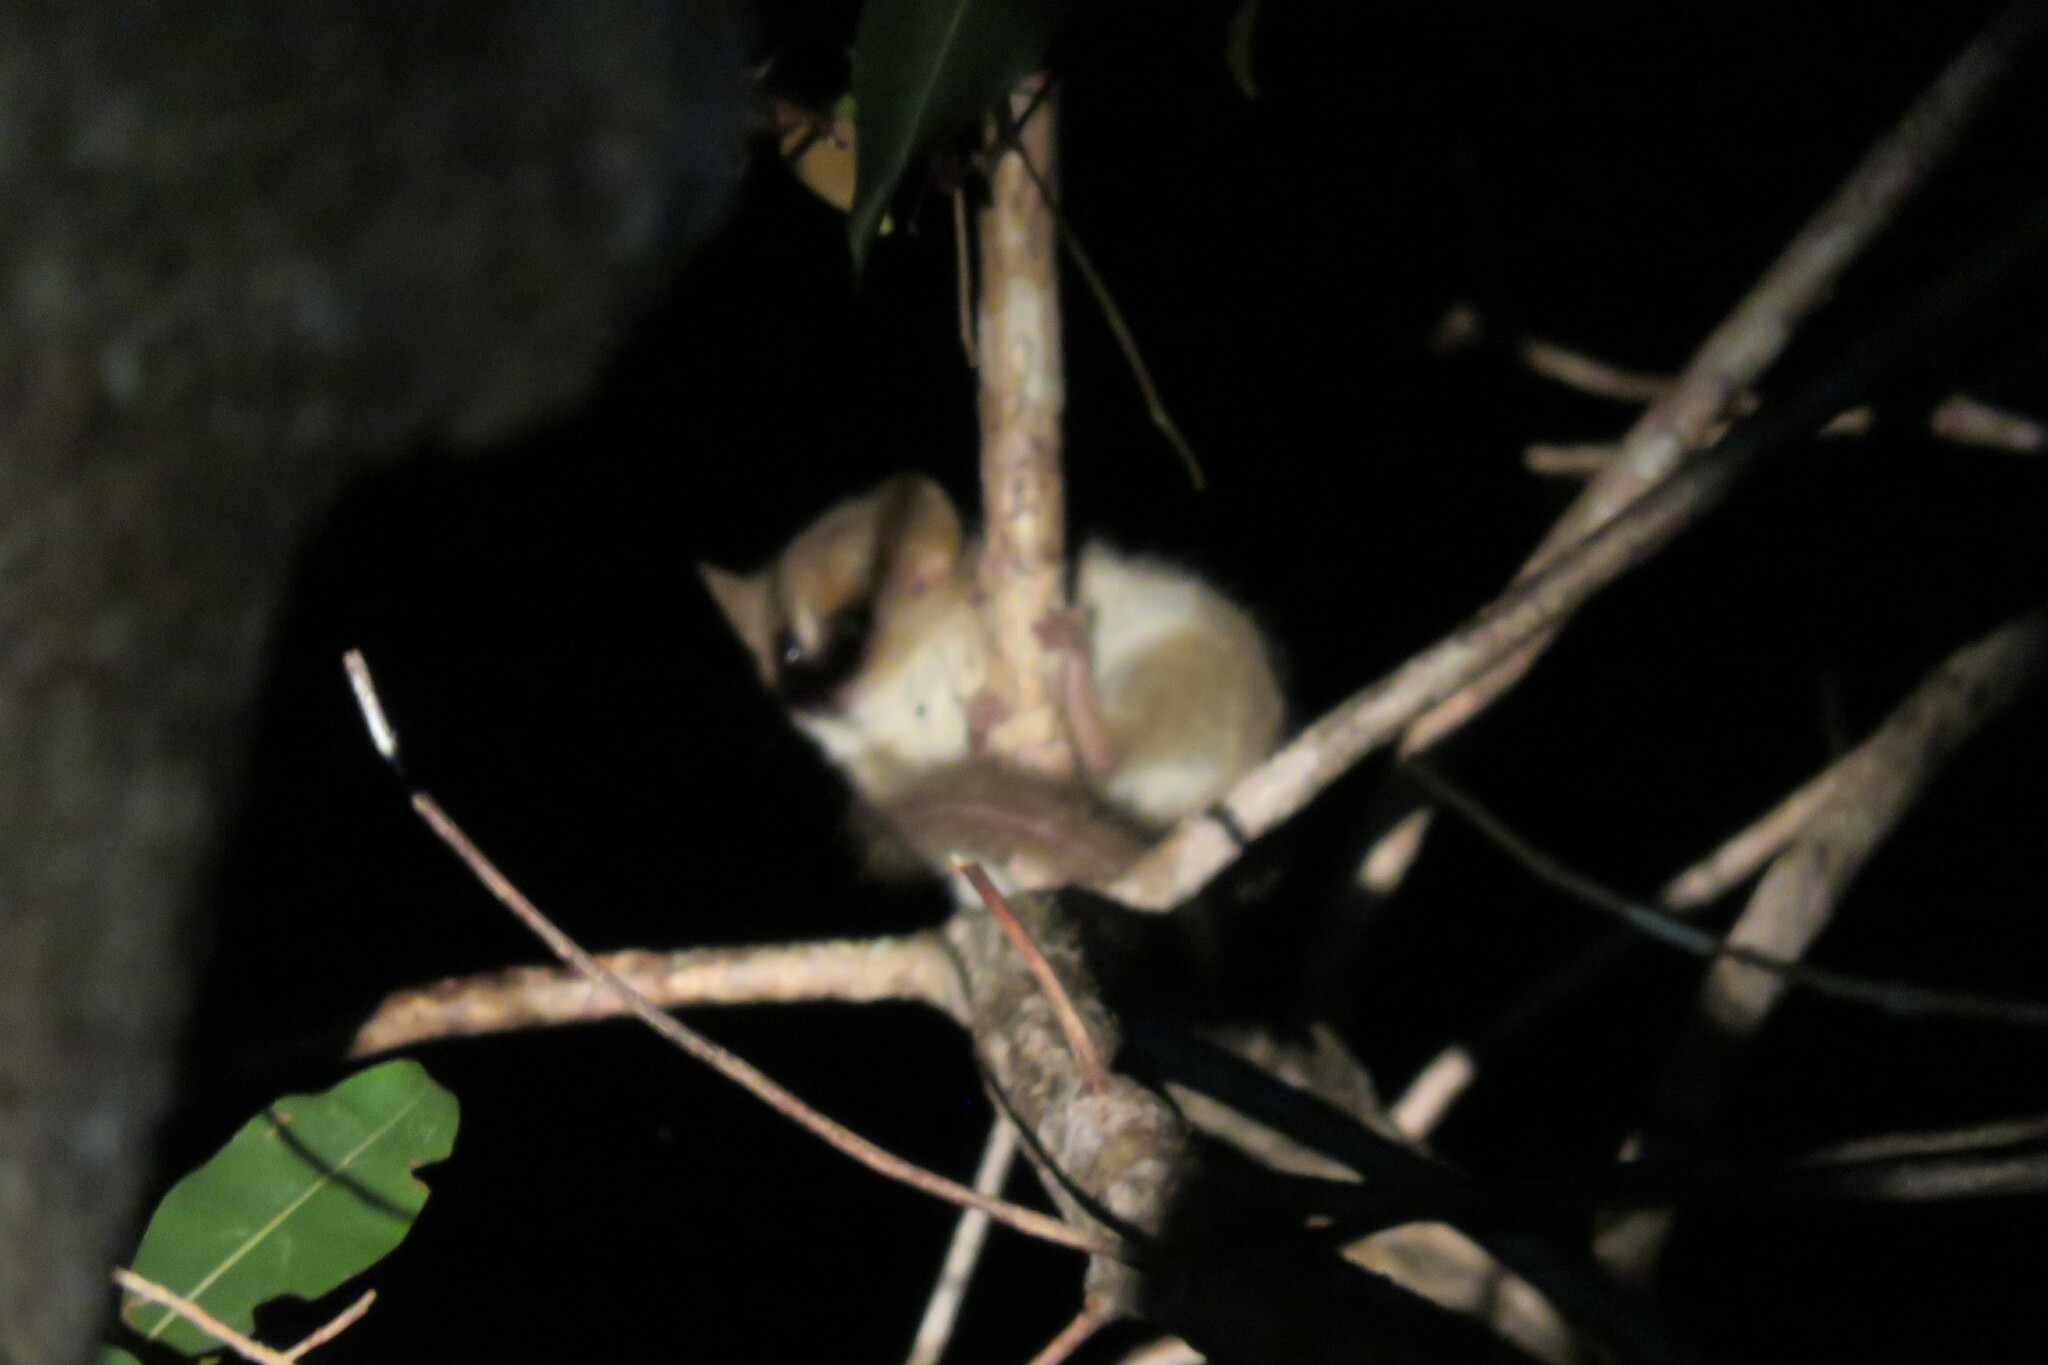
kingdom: Animalia
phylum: Chordata
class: Mammalia
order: Primates
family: Cheirogaleidae
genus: Microcebus
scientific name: Microcebus murinus
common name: Gray mouse lemur
